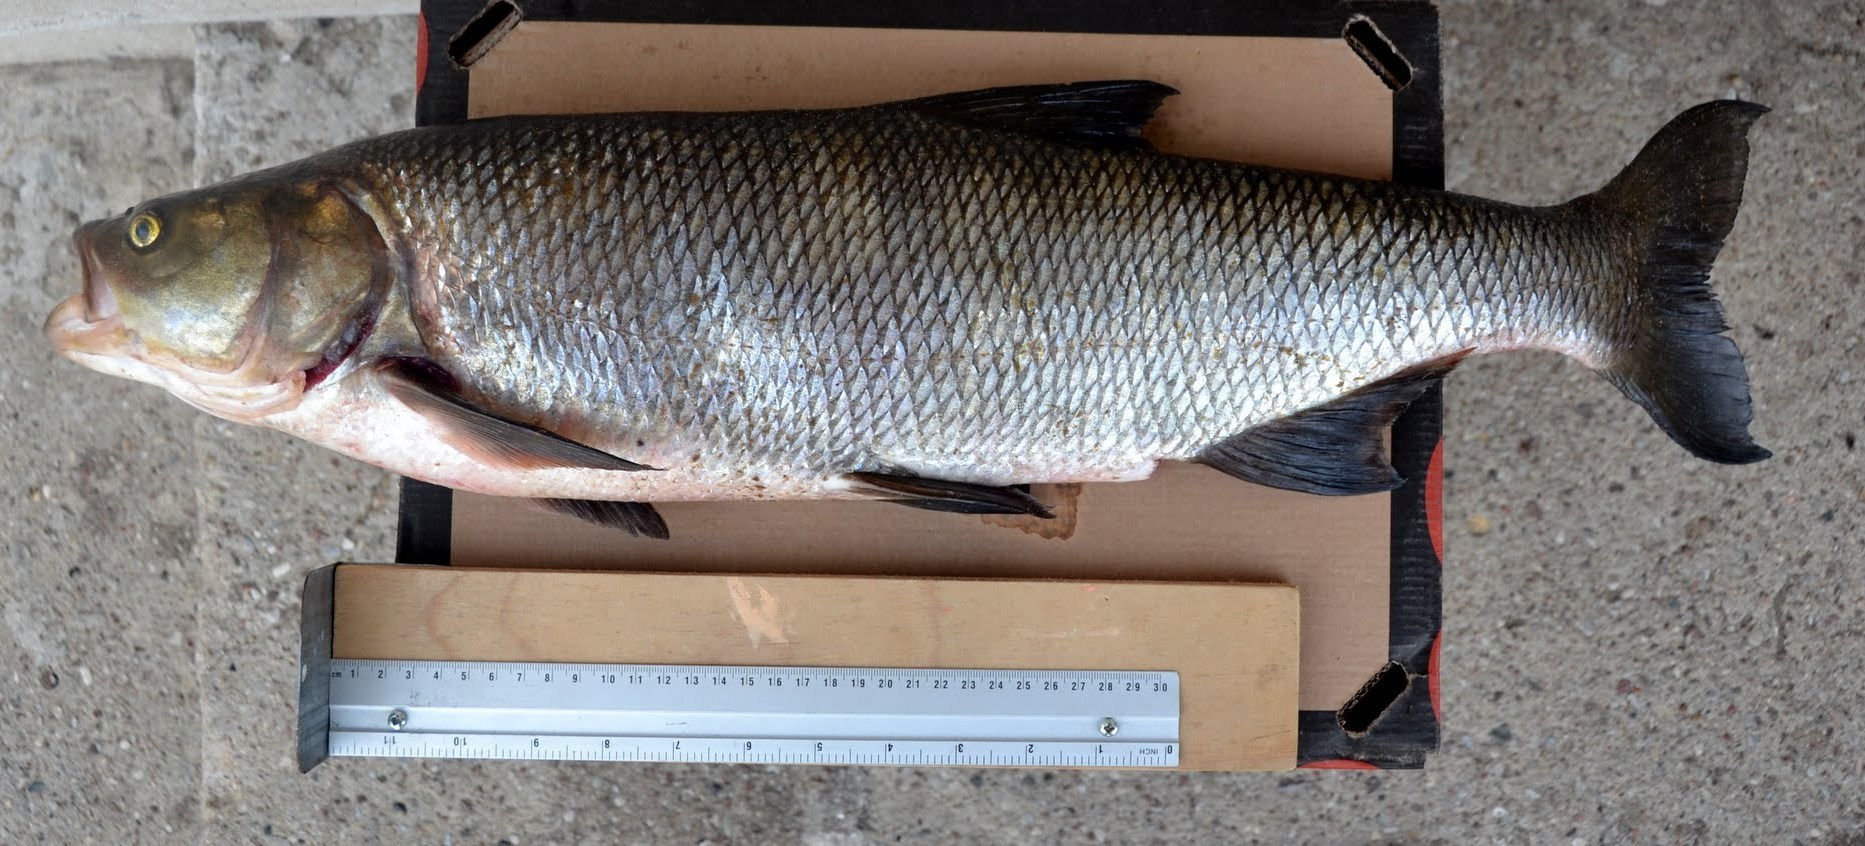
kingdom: Animalia
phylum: Chordata
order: Cypriniformes
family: Cyprinidae
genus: Leuciscus
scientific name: Leuciscus aspius
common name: Asp
